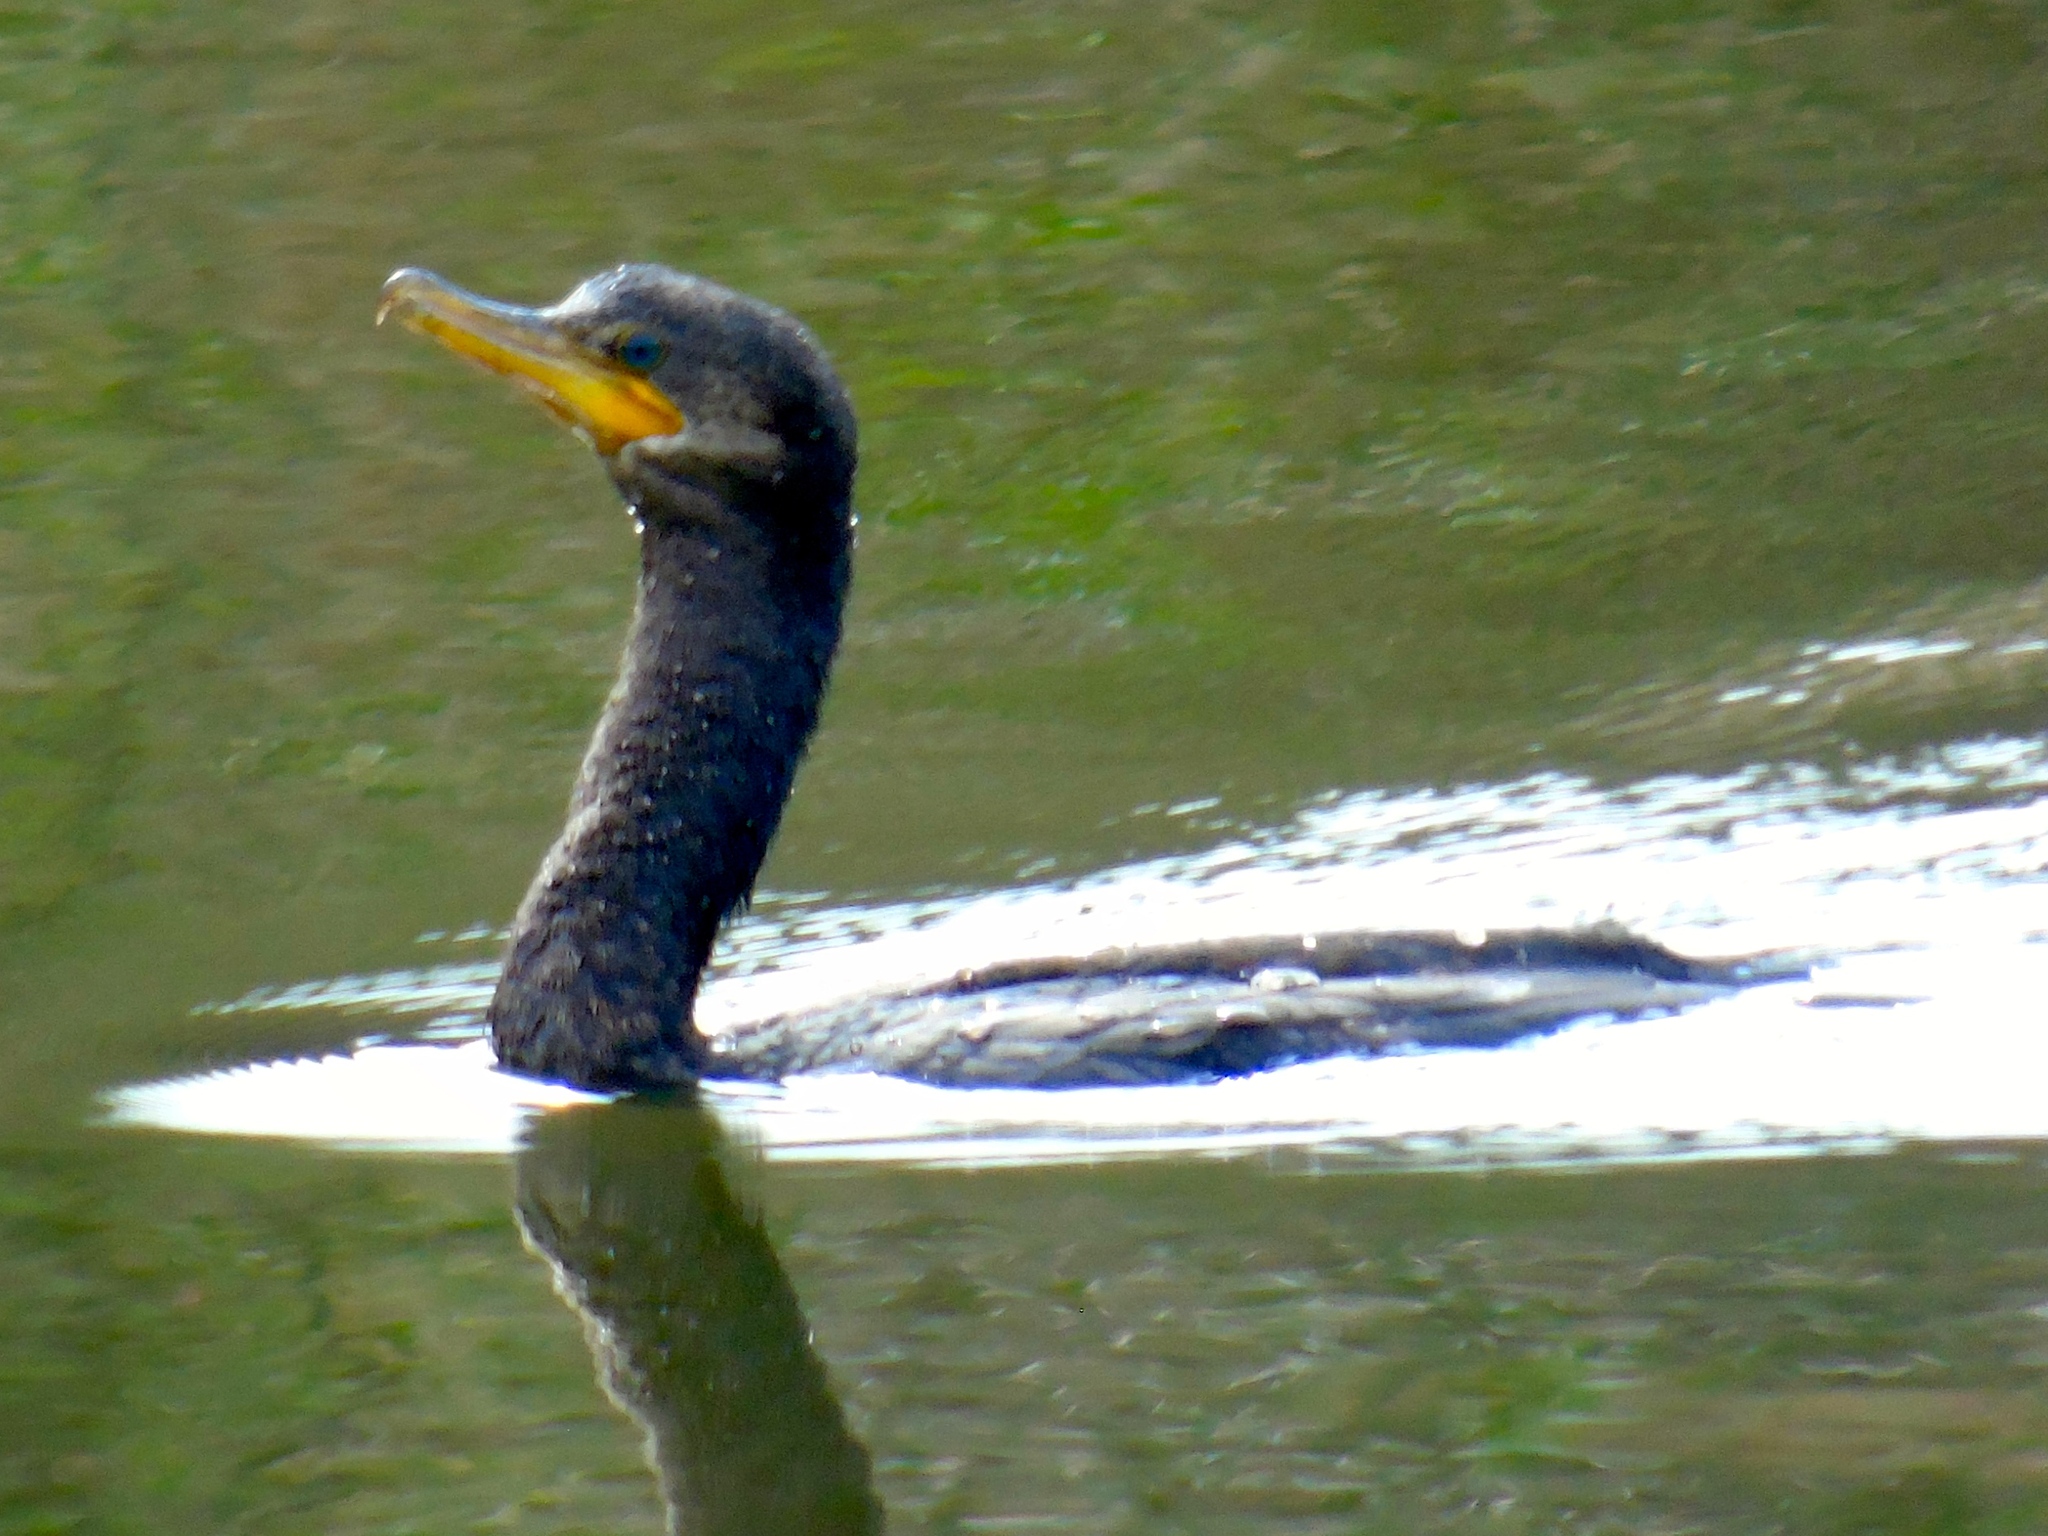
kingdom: Animalia
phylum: Chordata
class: Aves
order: Suliformes
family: Phalacrocoracidae
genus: Phalacrocorax
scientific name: Phalacrocorax brasilianus
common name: Neotropic cormorant
